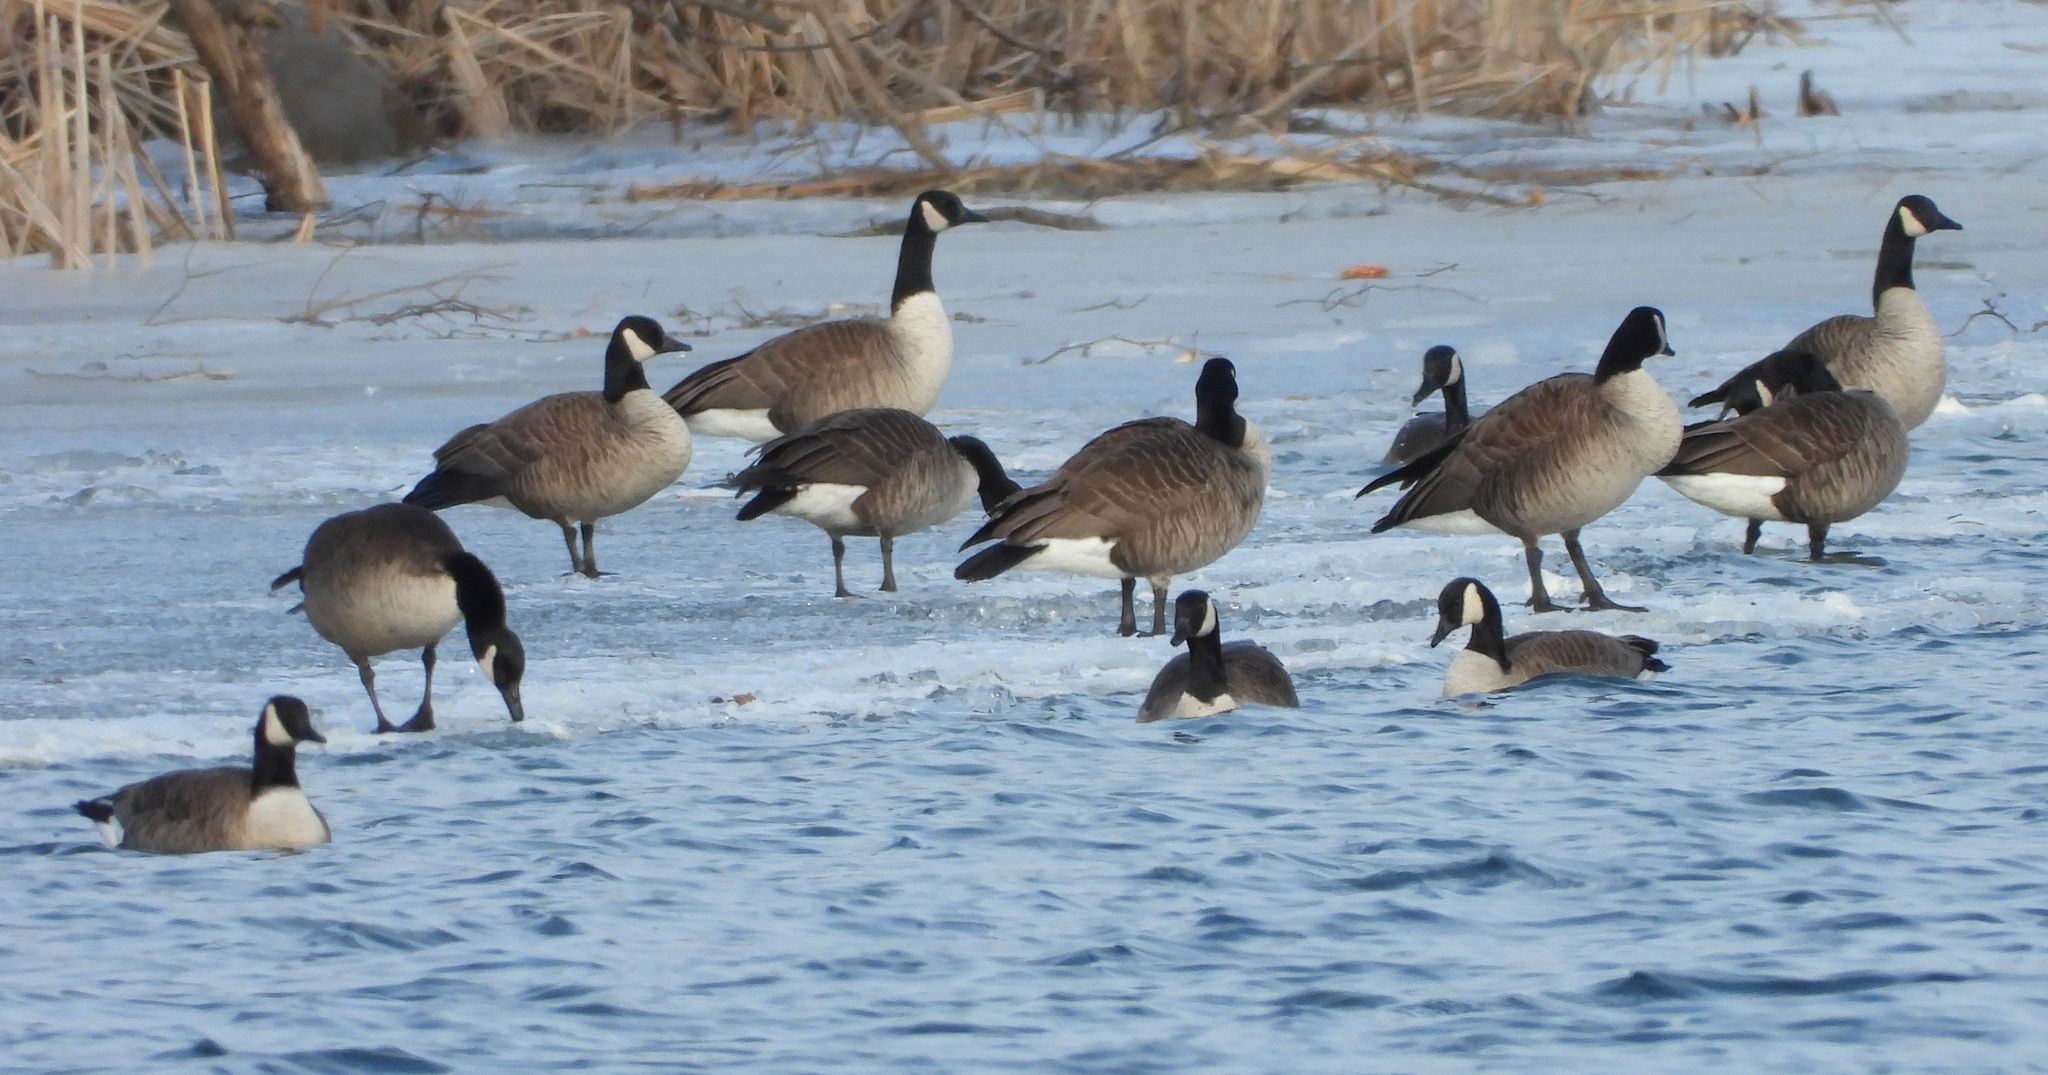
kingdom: Animalia
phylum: Chordata
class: Aves
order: Anseriformes
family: Anatidae
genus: Branta
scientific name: Branta canadensis
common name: Canada goose
